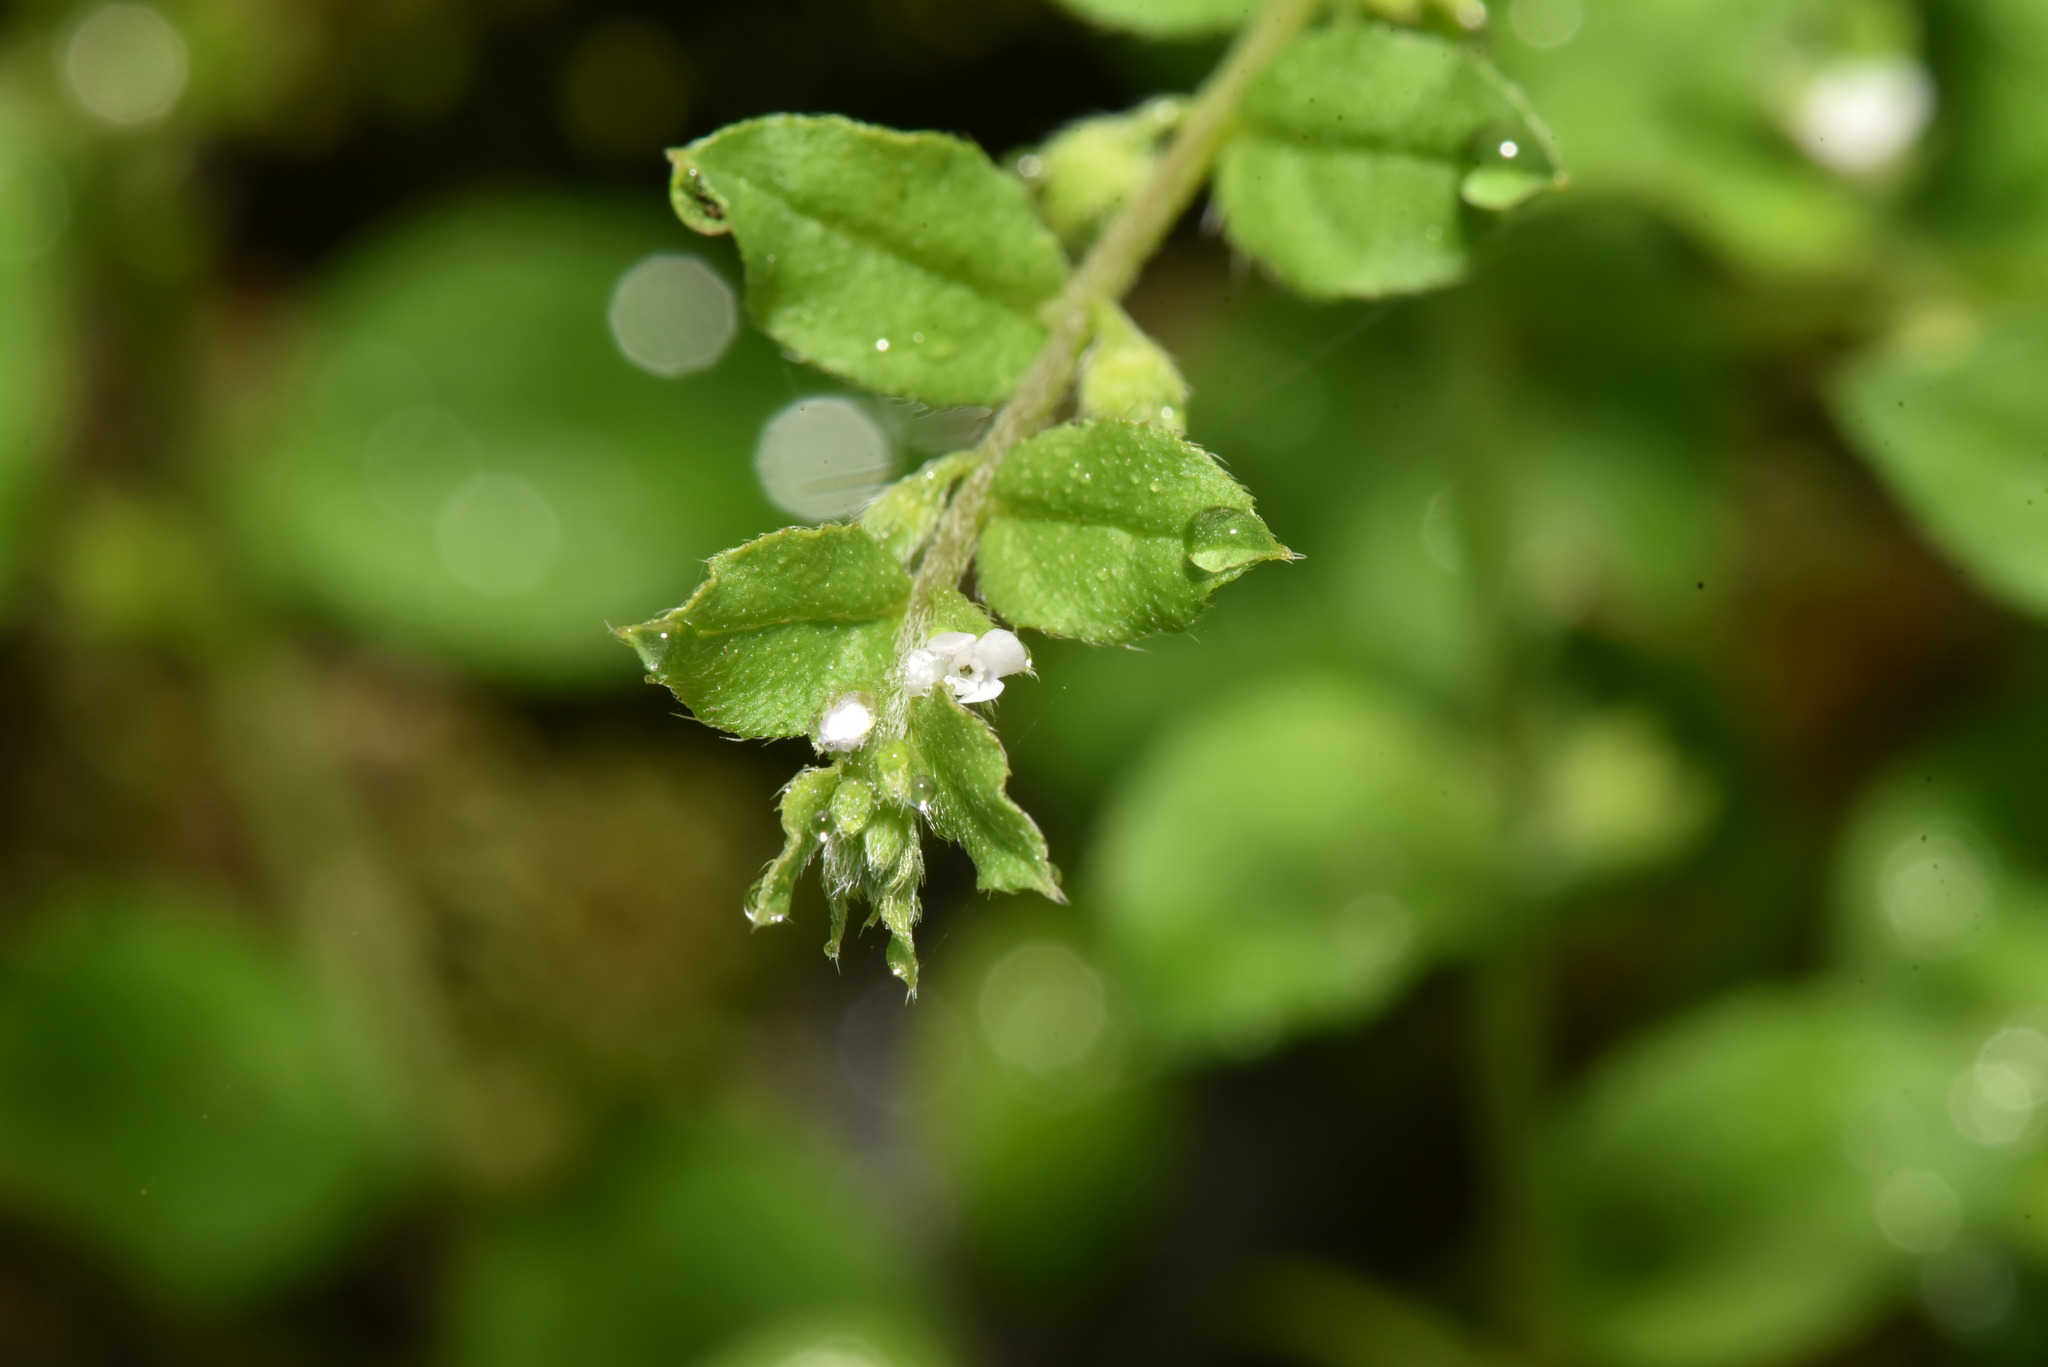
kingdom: Plantae
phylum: Tracheophyta
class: Magnoliopsida
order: Boraginales
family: Boraginaceae
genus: Bothriospermum
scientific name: Bothriospermum zeylanicum
